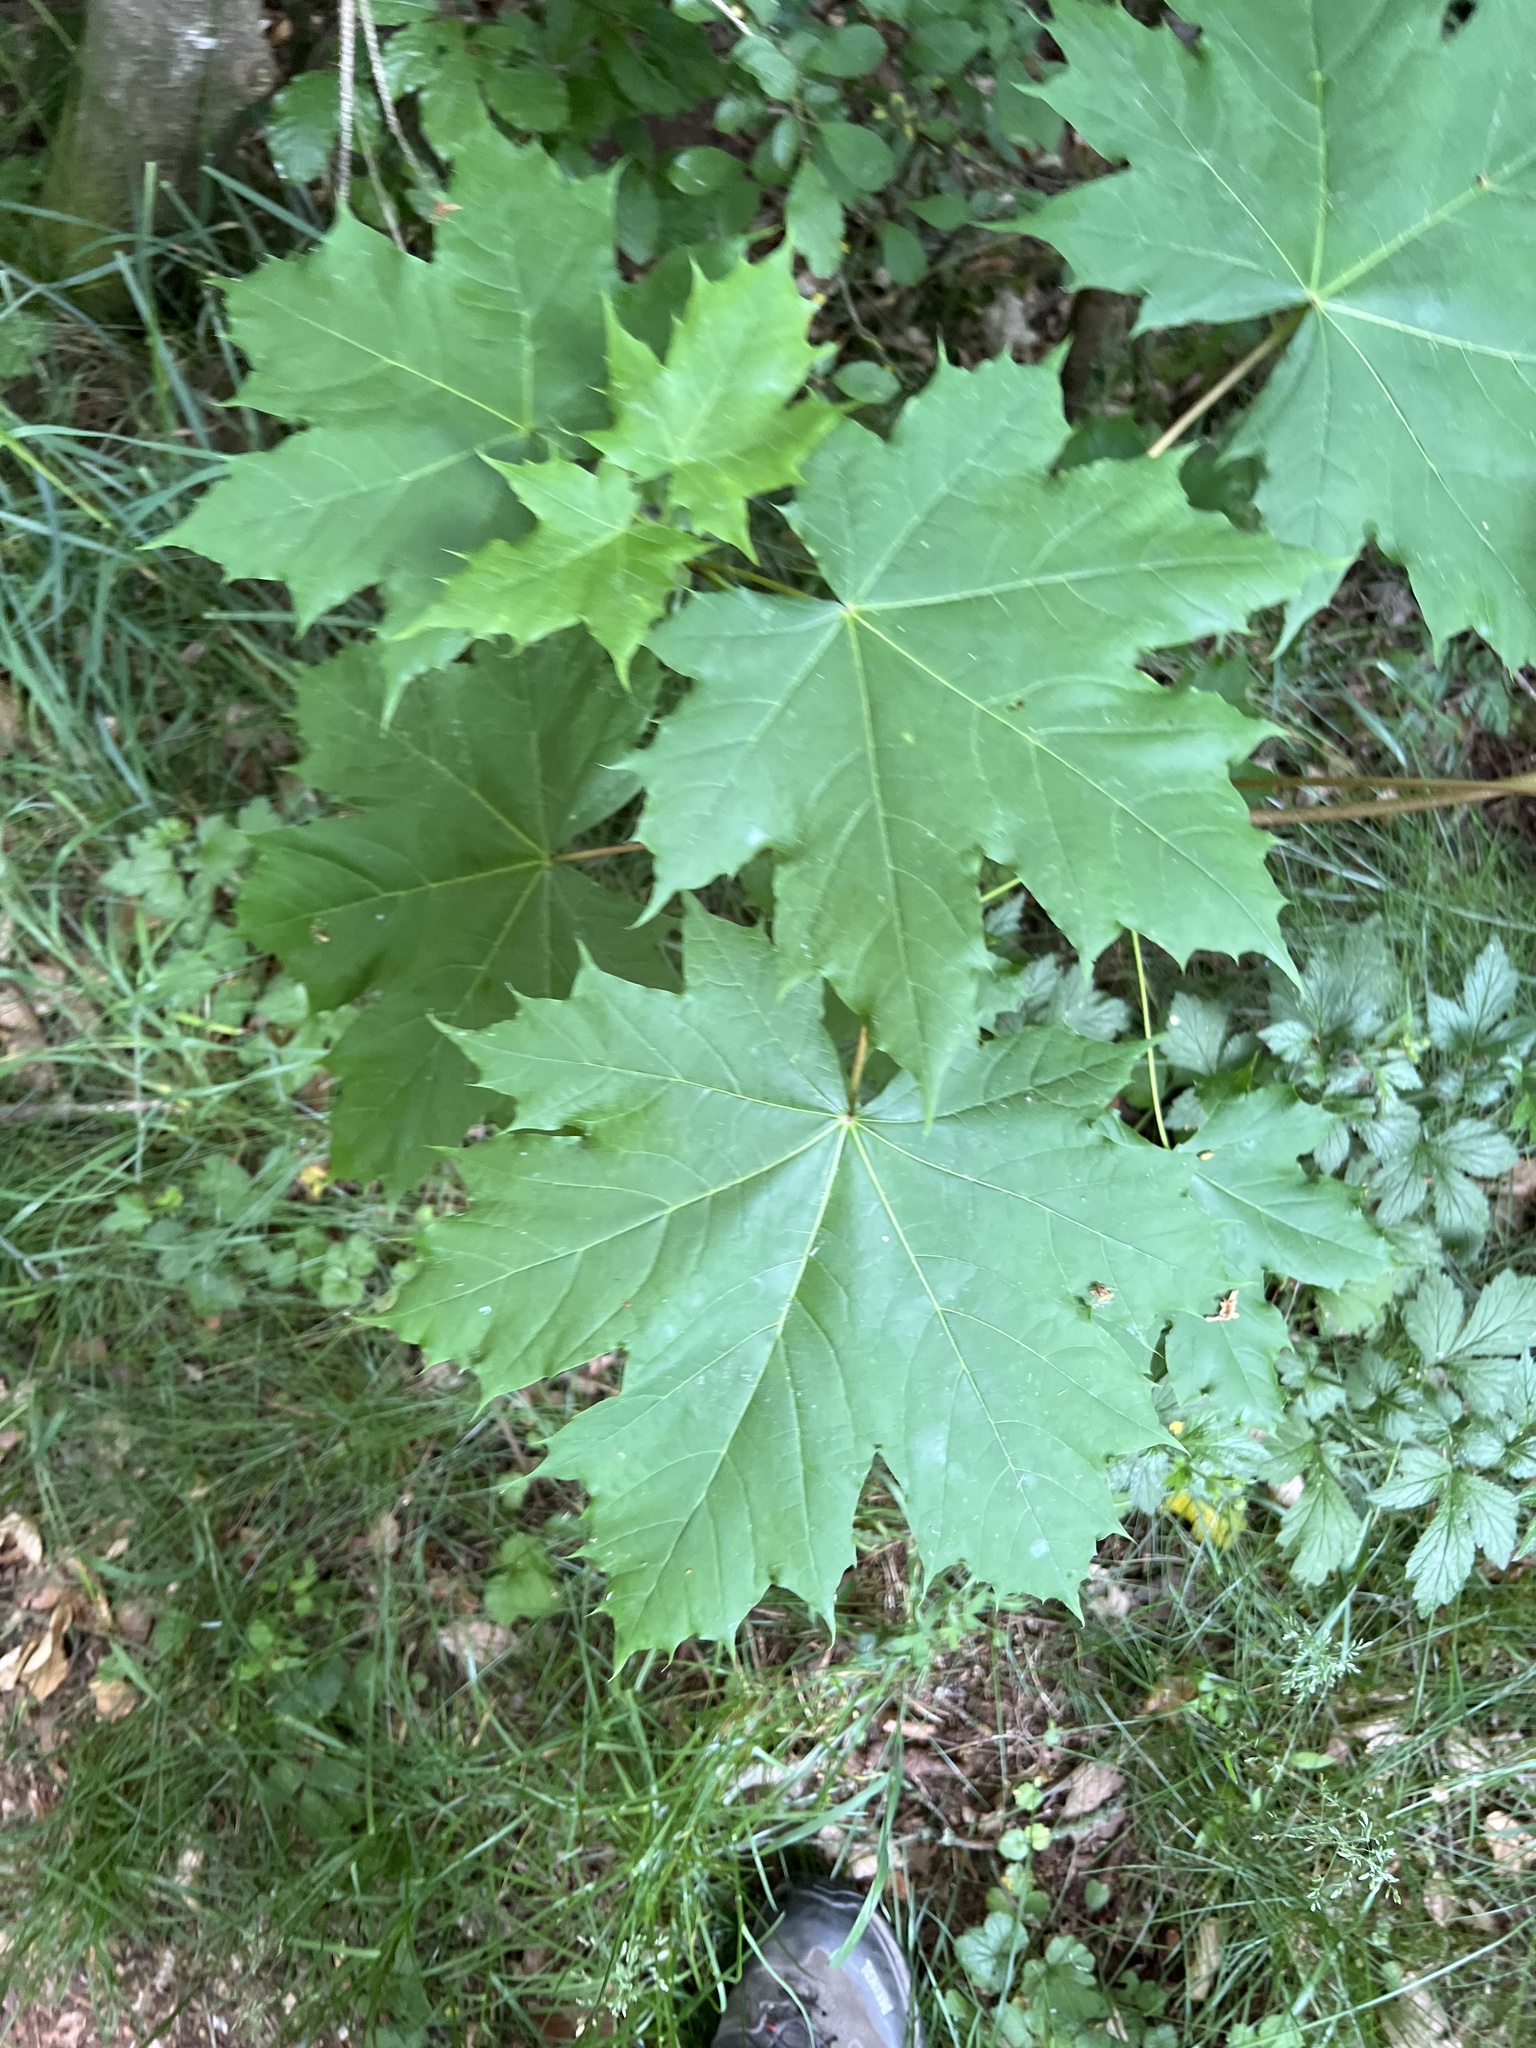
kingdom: Plantae
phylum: Tracheophyta
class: Magnoliopsida
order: Sapindales
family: Sapindaceae
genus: Acer
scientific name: Acer platanoides
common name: Norway maple
